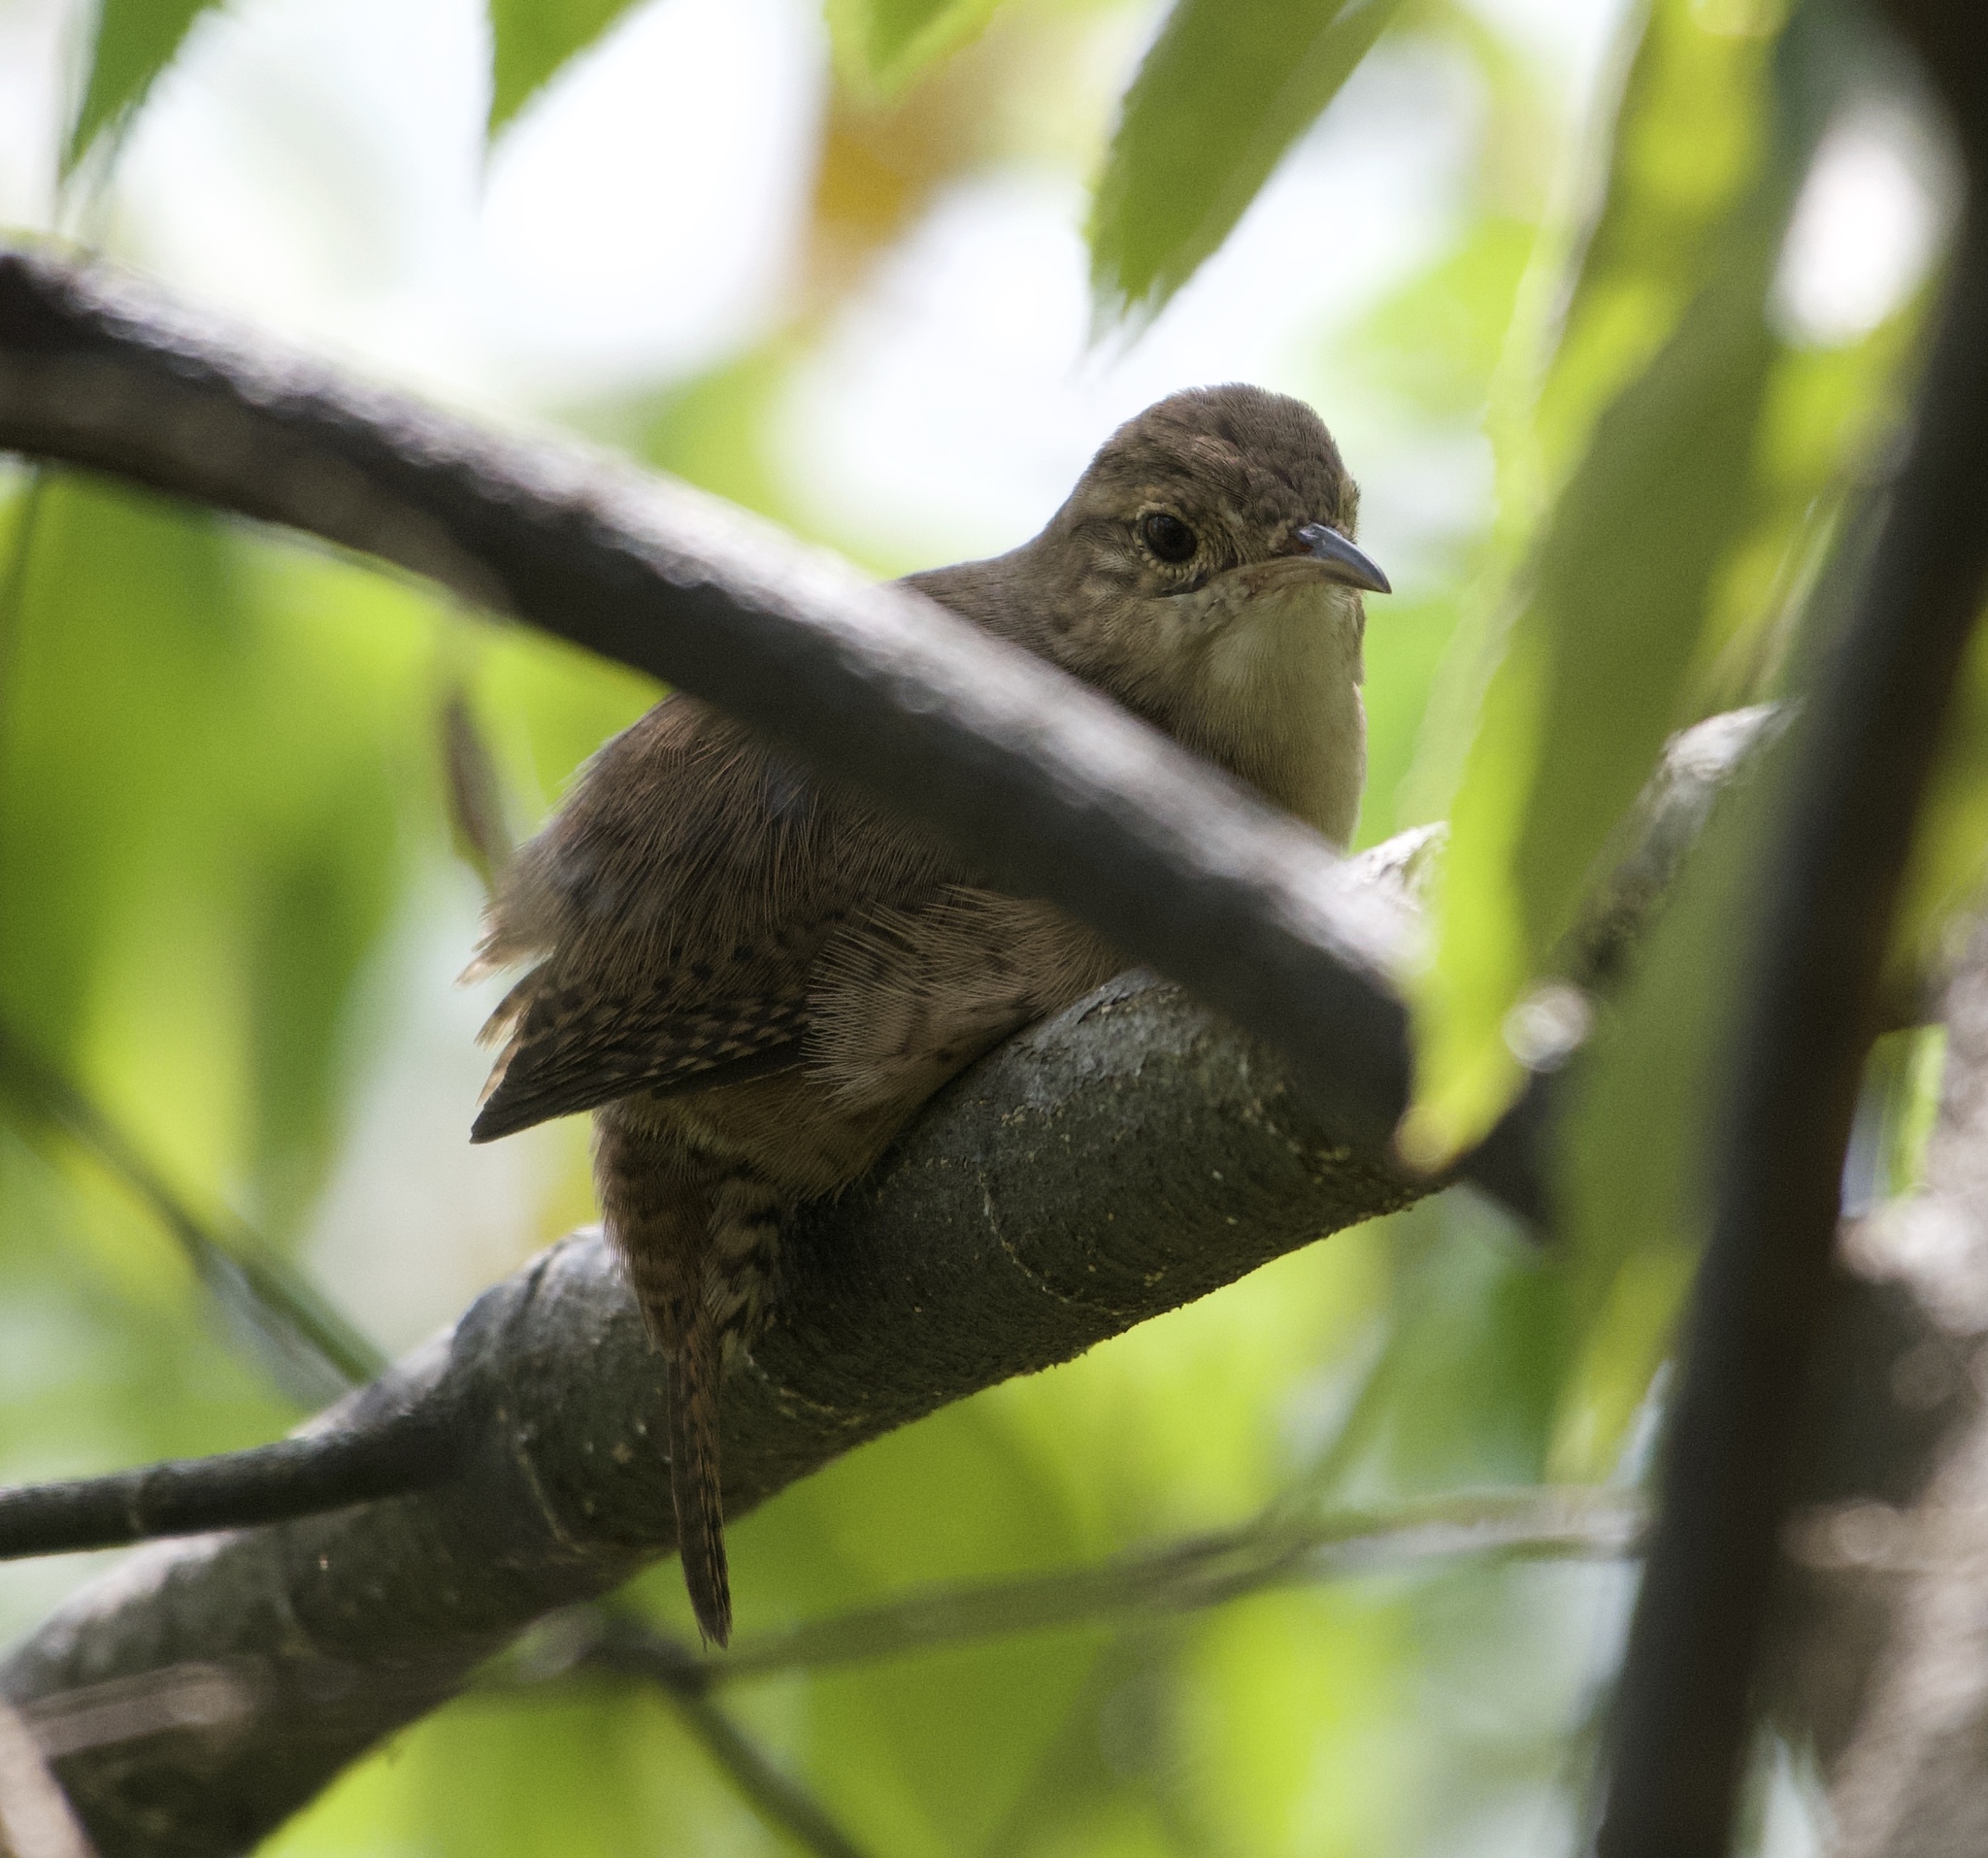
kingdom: Animalia
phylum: Chordata
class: Aves
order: Passeriformes
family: Troglodytidae
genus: Troglodytes
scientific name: Troglodytes aedon
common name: House wren
